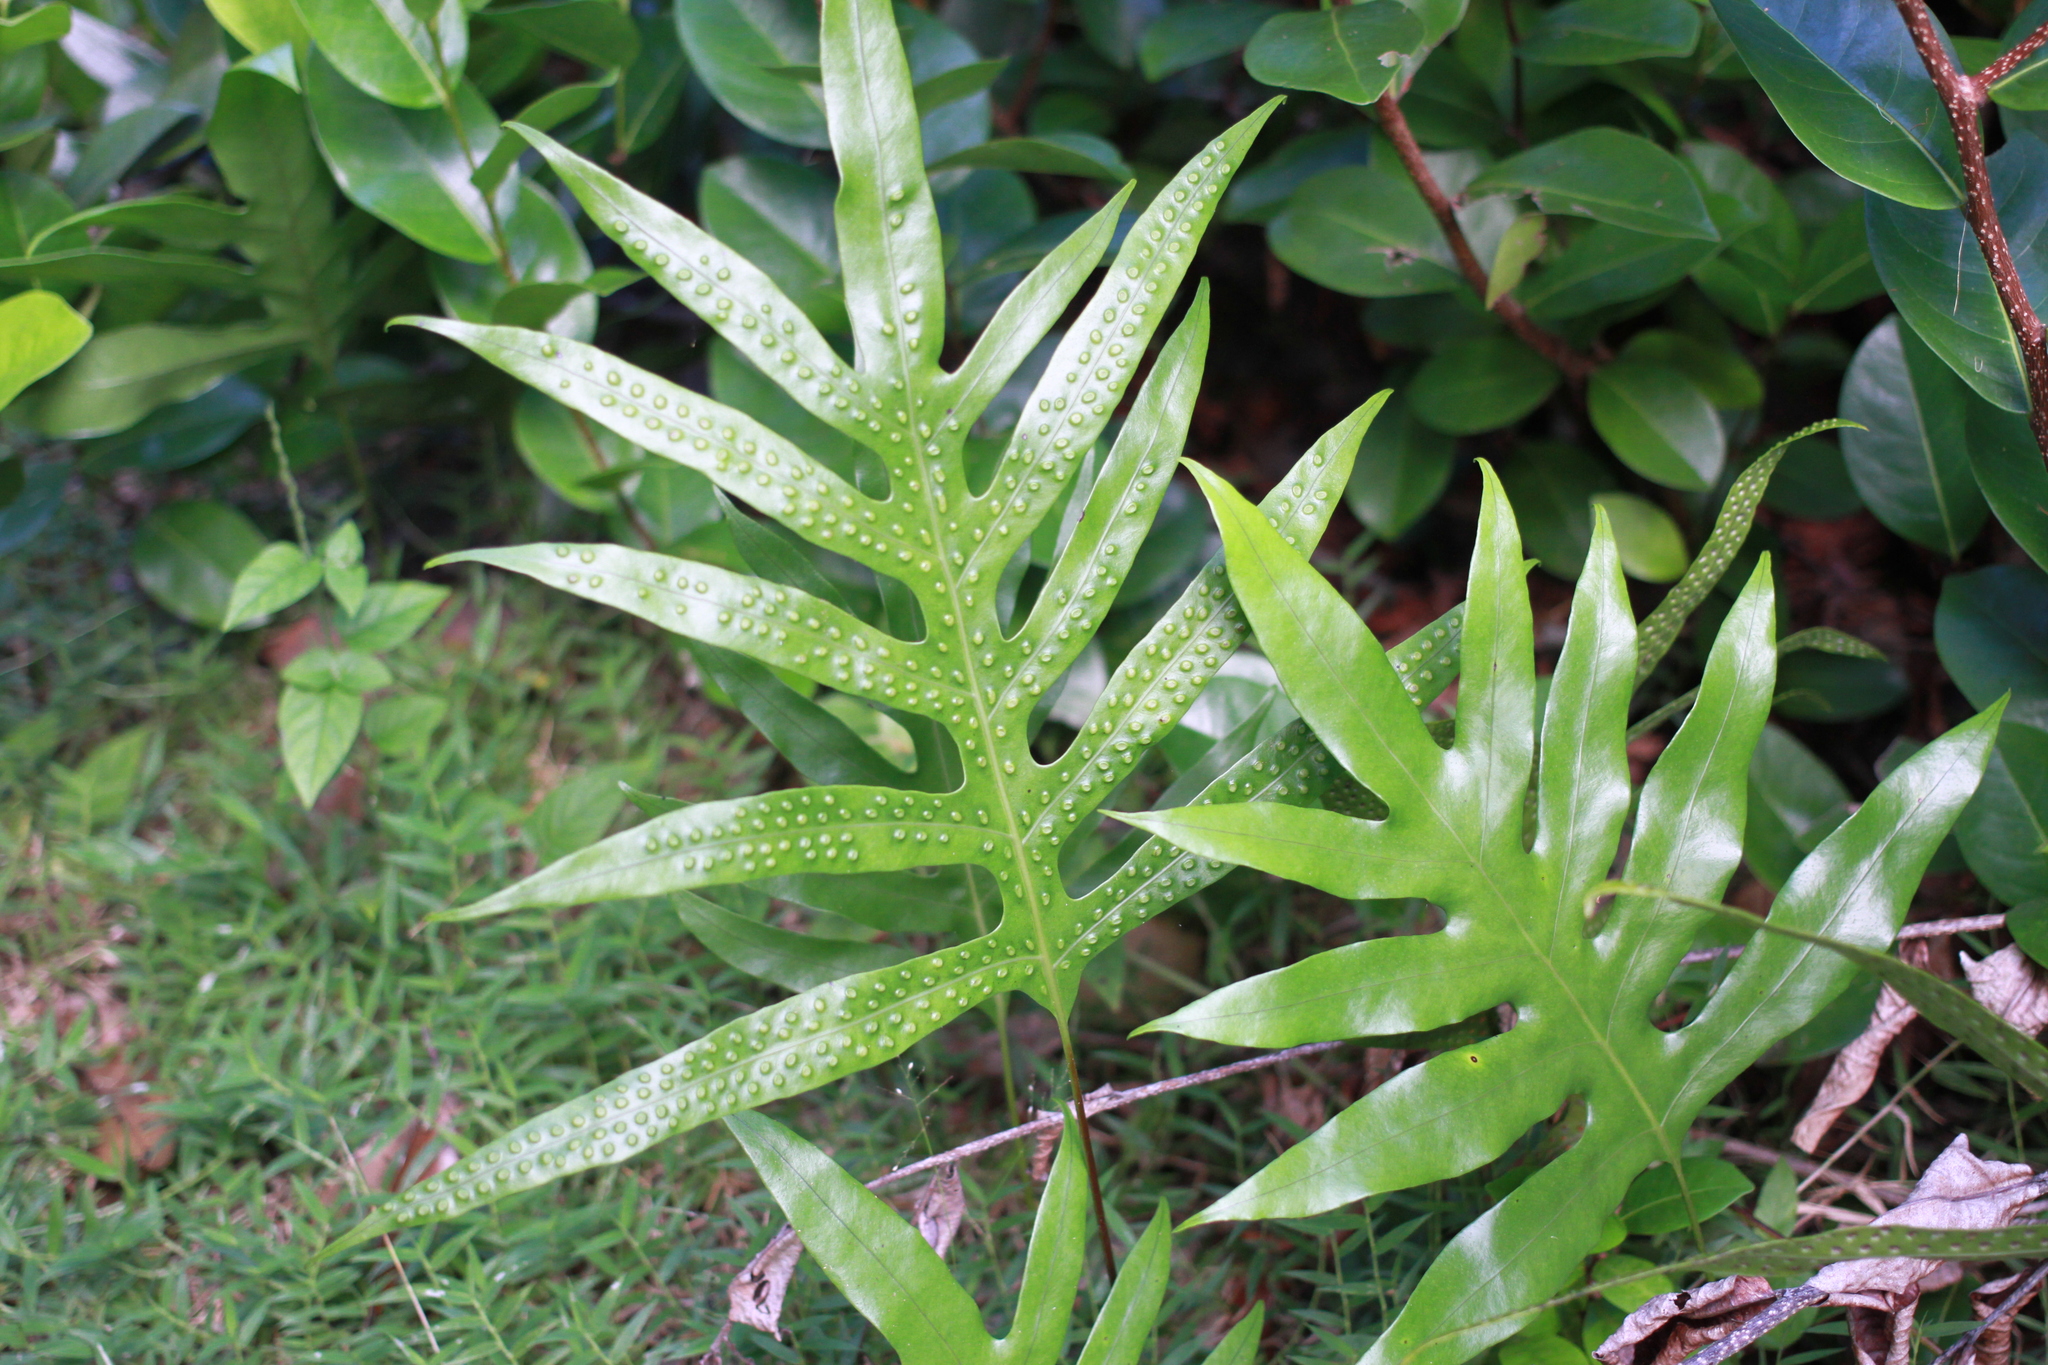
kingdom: Plantae
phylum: Tracheophyta
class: Polypodiopsida
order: Polypodiales
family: Polypodiaceae
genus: Microsorum
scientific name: Microsorum scolopendria
